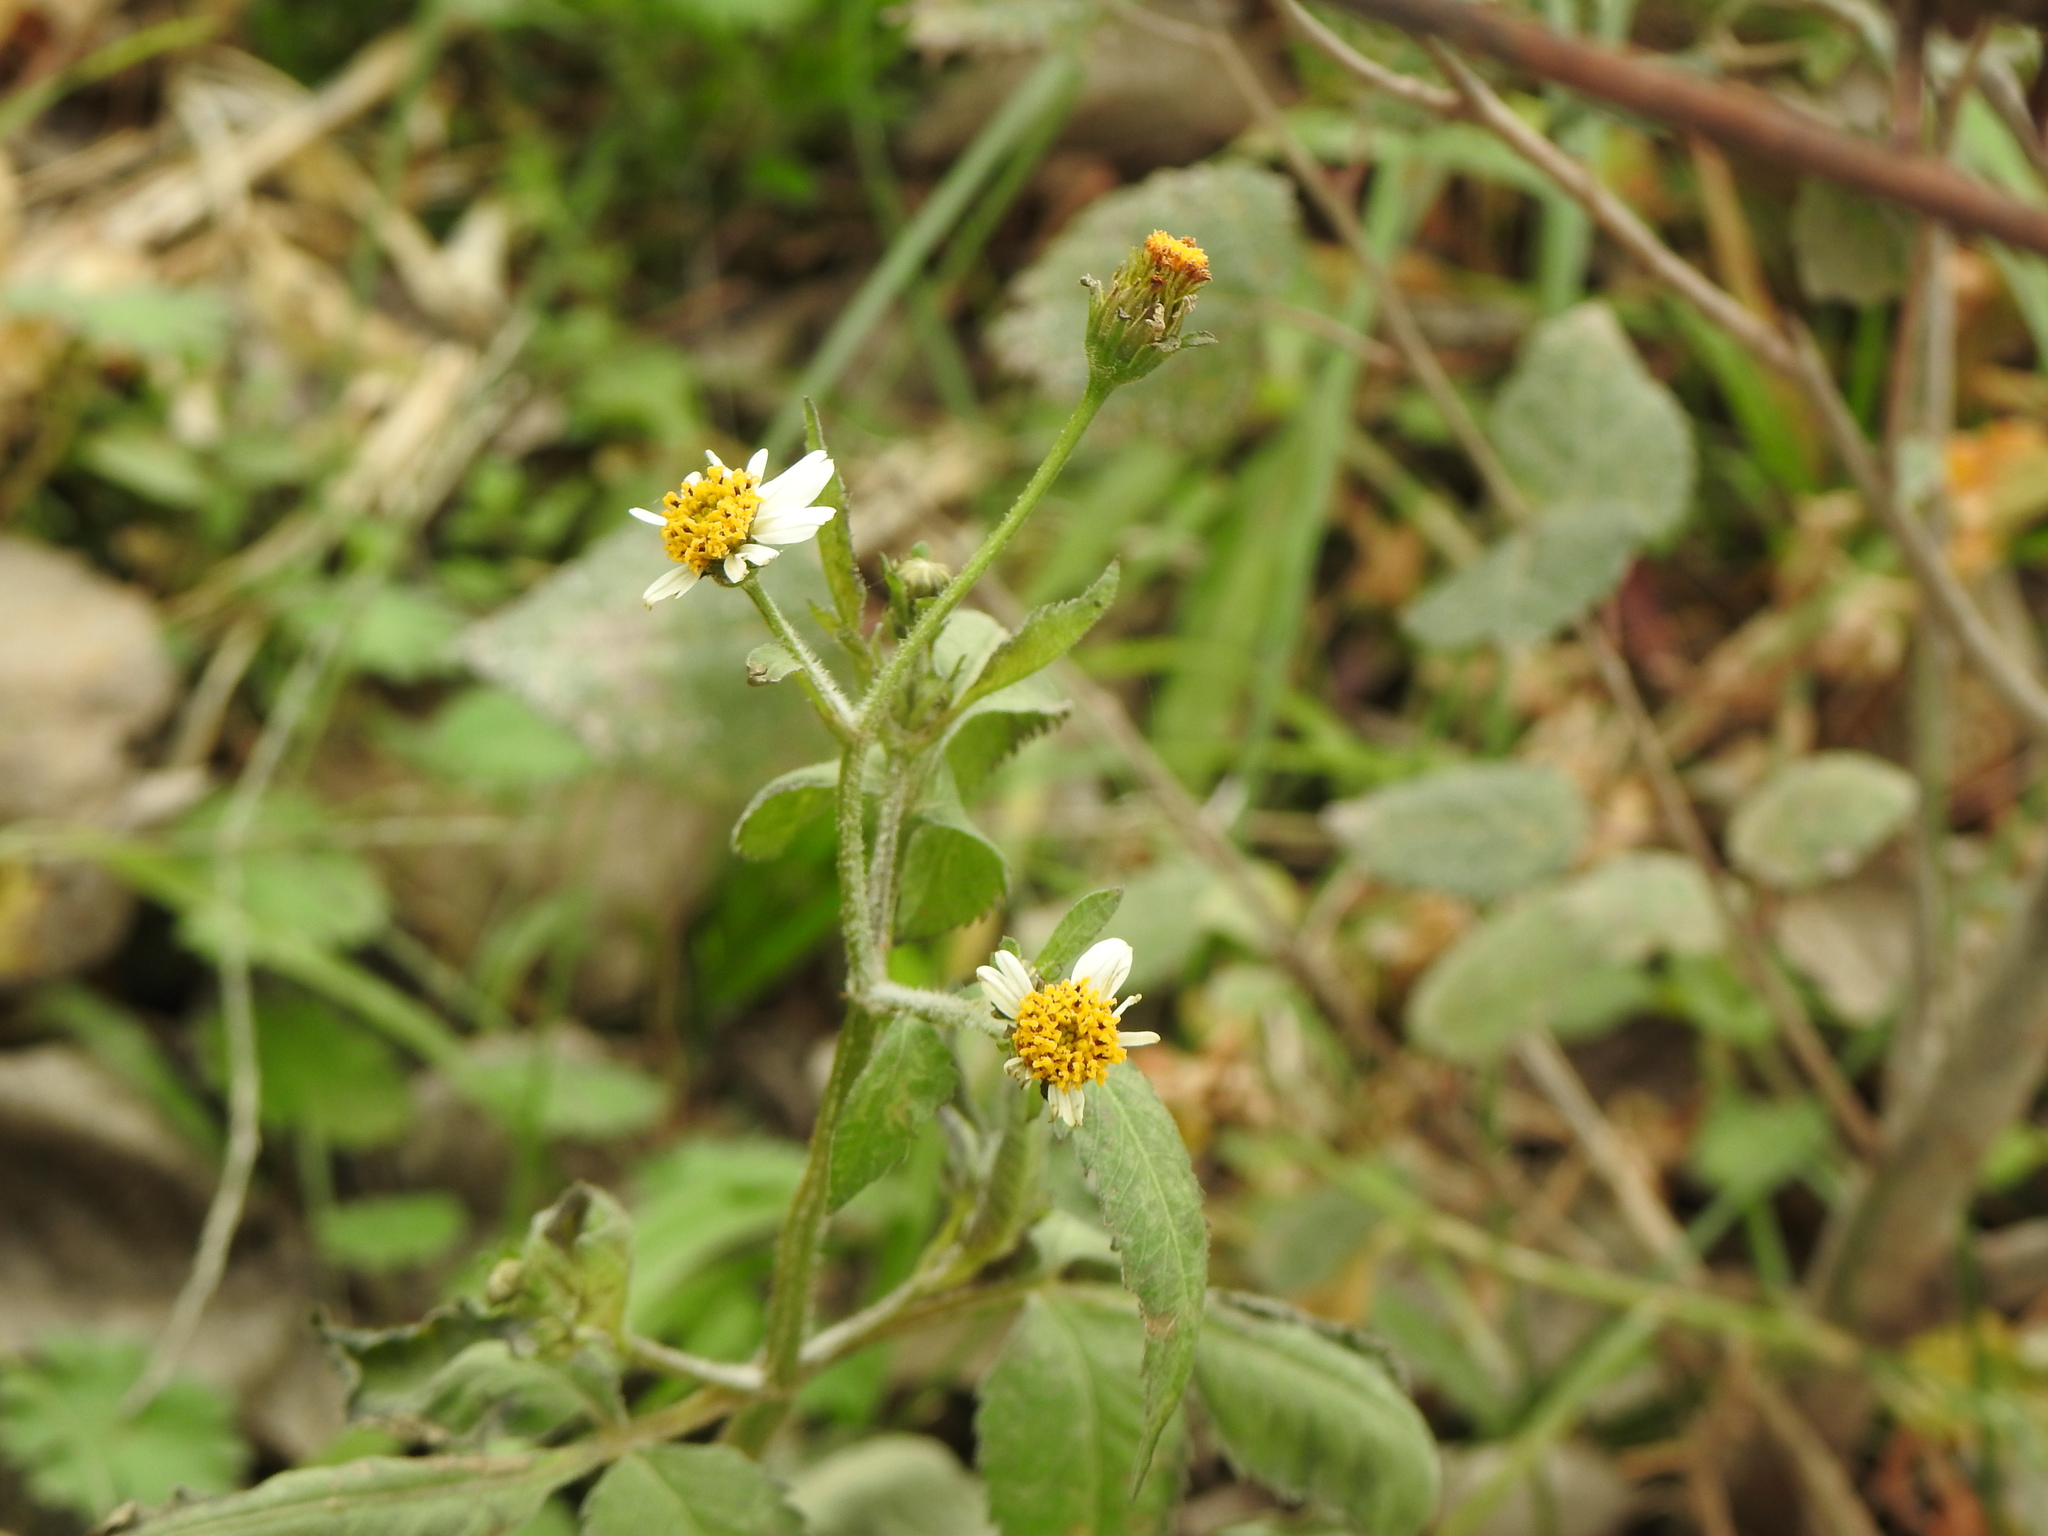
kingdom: Plantae
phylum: Tracheophyta
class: Magnoliopsida
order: Asterales
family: Asteraceae
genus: Bidens
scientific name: Bidens pilosa
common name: Black-jack
